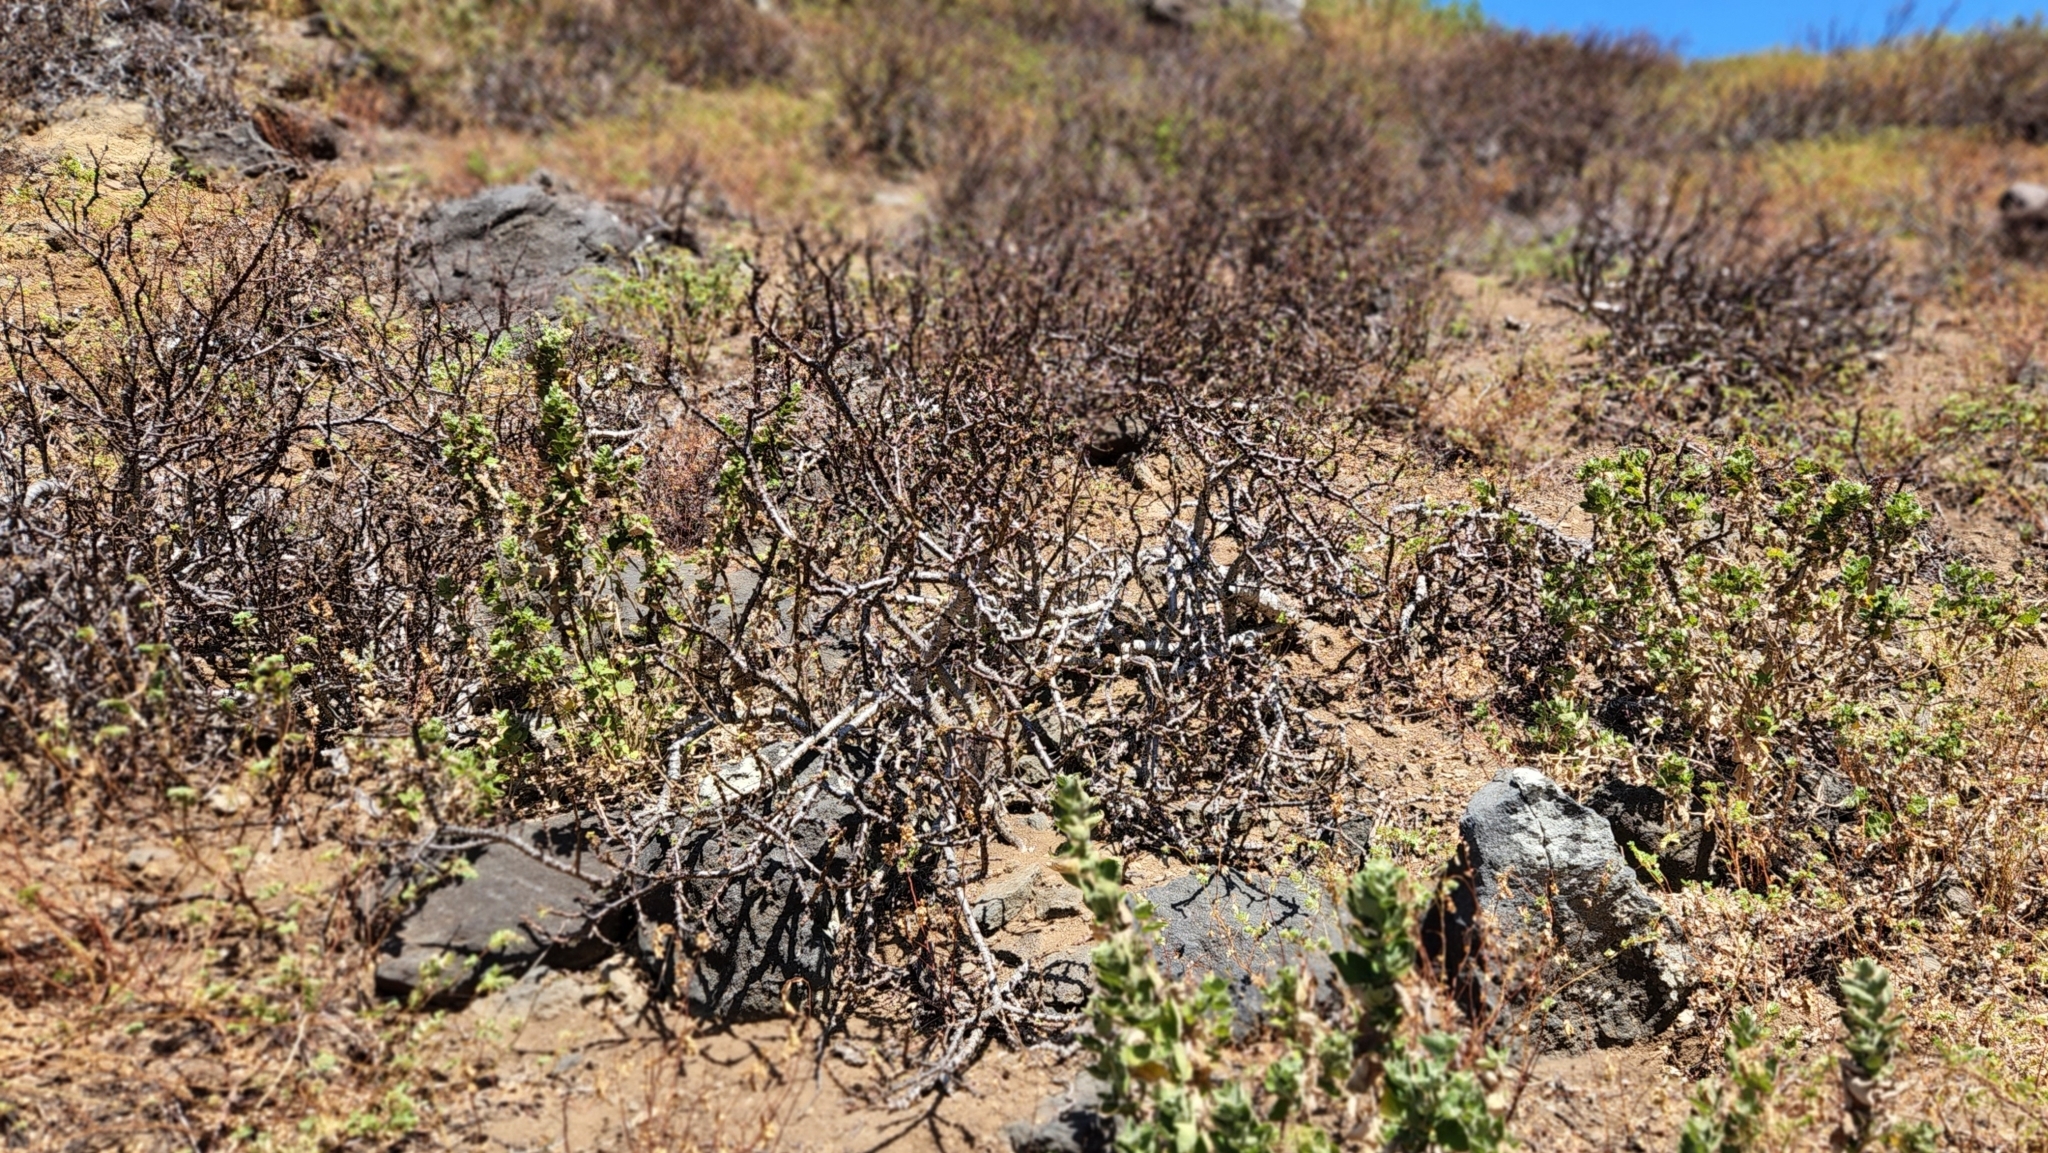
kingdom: Plantae
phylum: Tracheophyta
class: Magnoliopsida
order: Malpighiales
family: Euphorbiaceae
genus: Euphorbia
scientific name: Euphorbia californica
